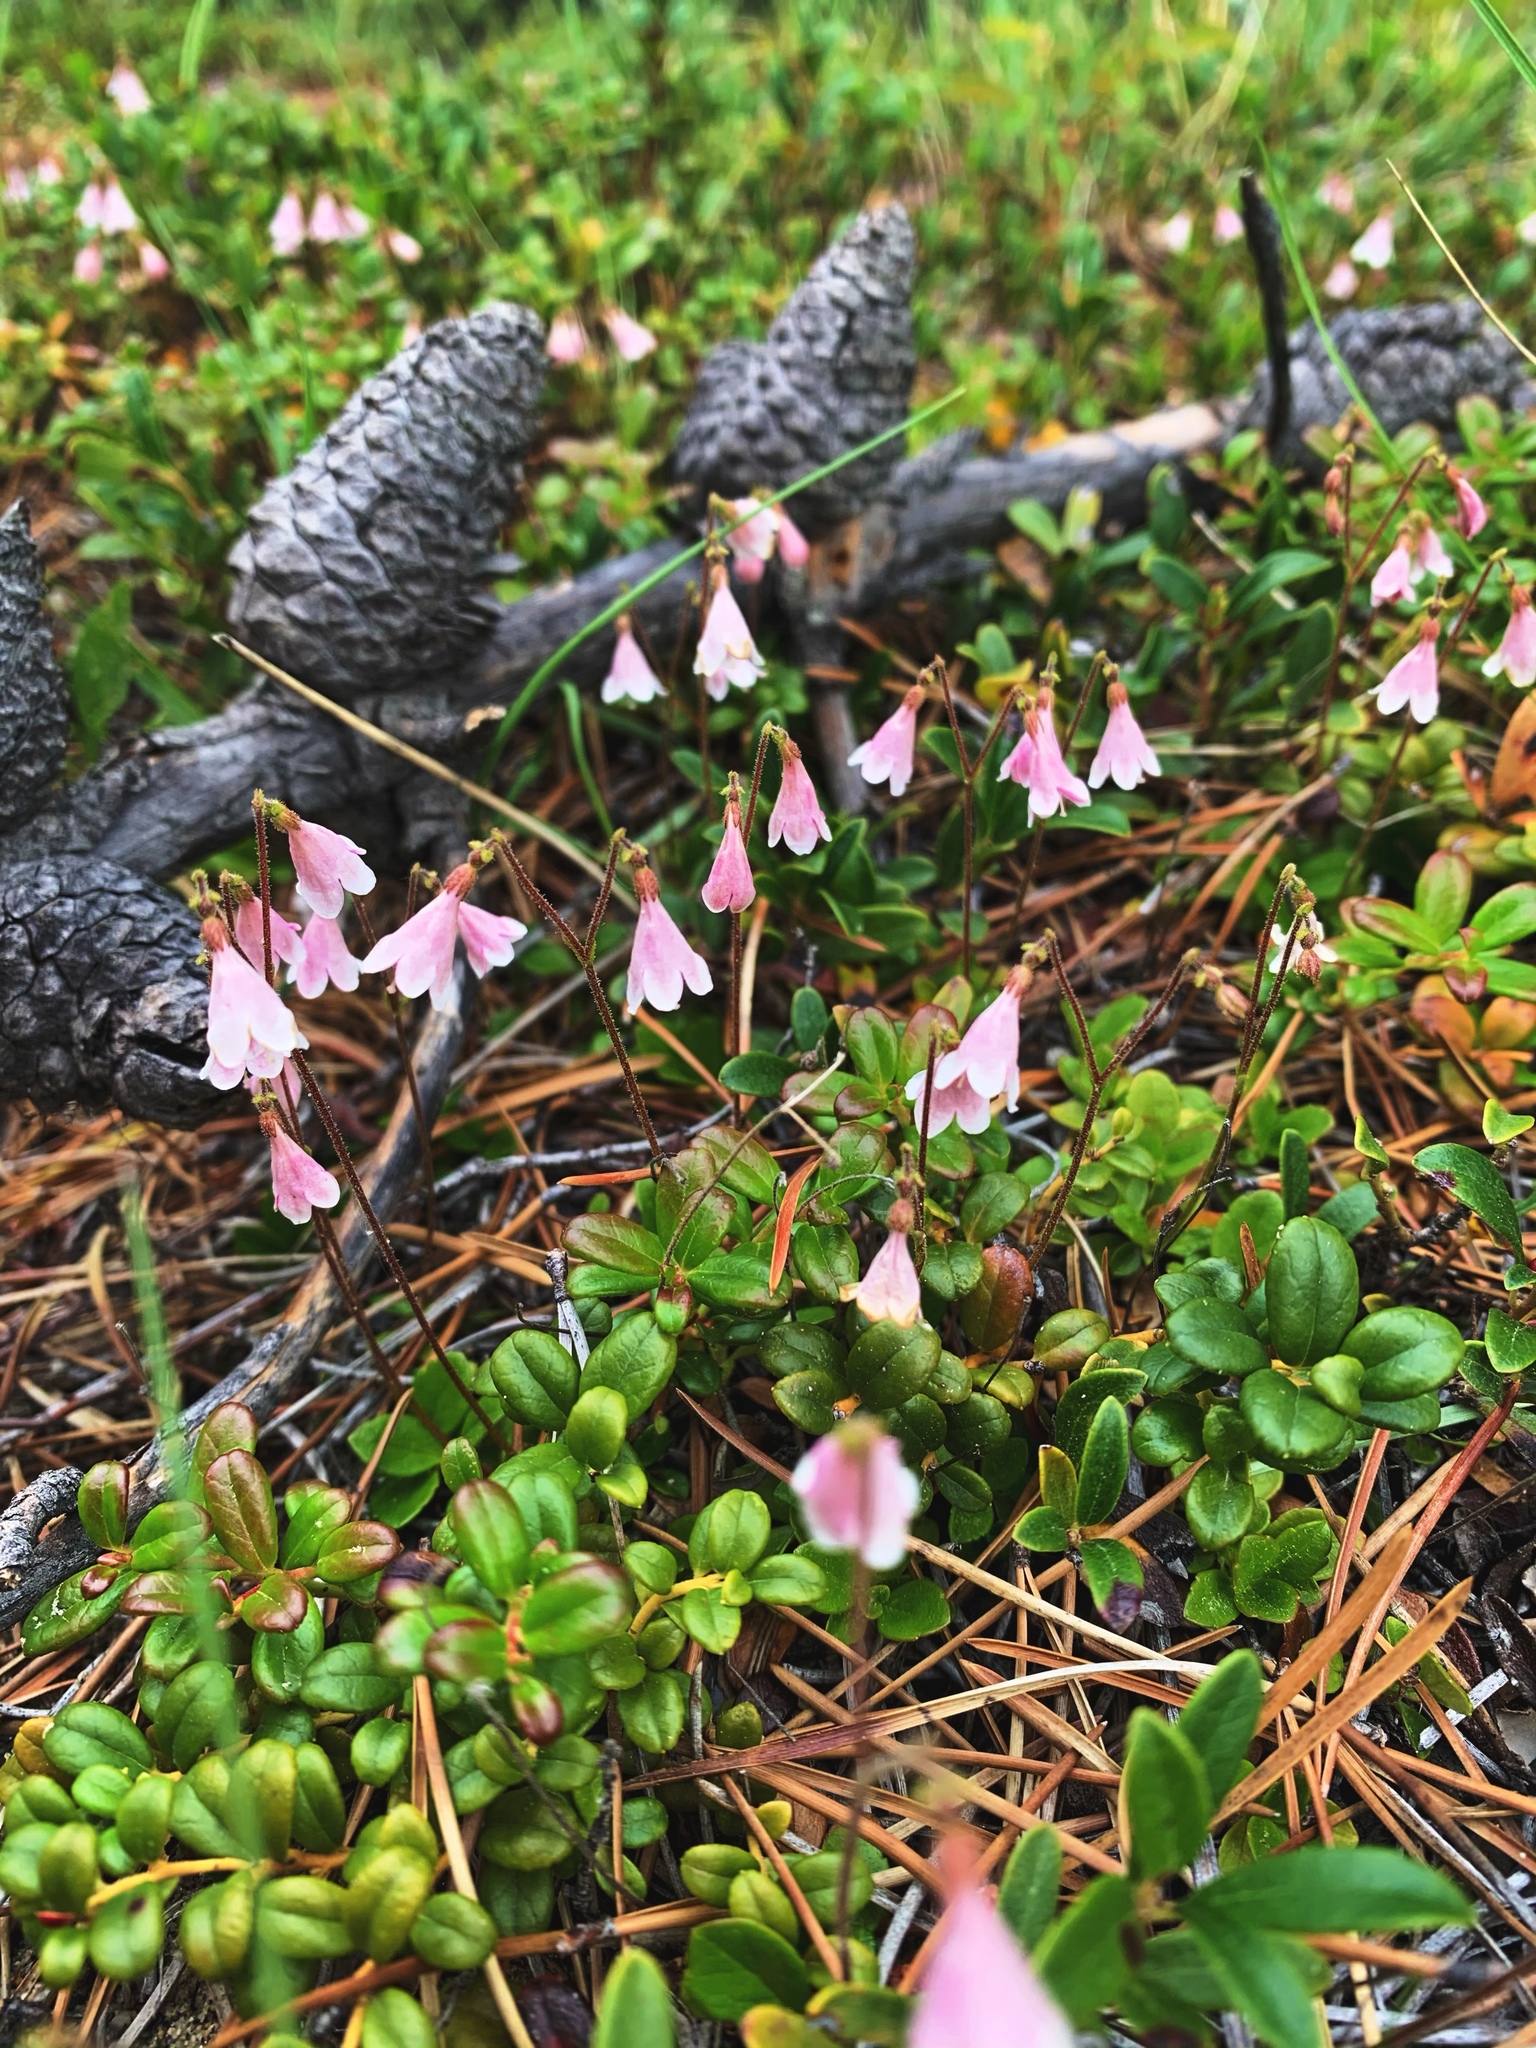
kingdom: Plantae
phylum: Tracheophyta
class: Magnoliopsida
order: Dipsacales
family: Caprifoliaceae
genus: Linnaea
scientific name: Linnaea borealis
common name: Twinflower
